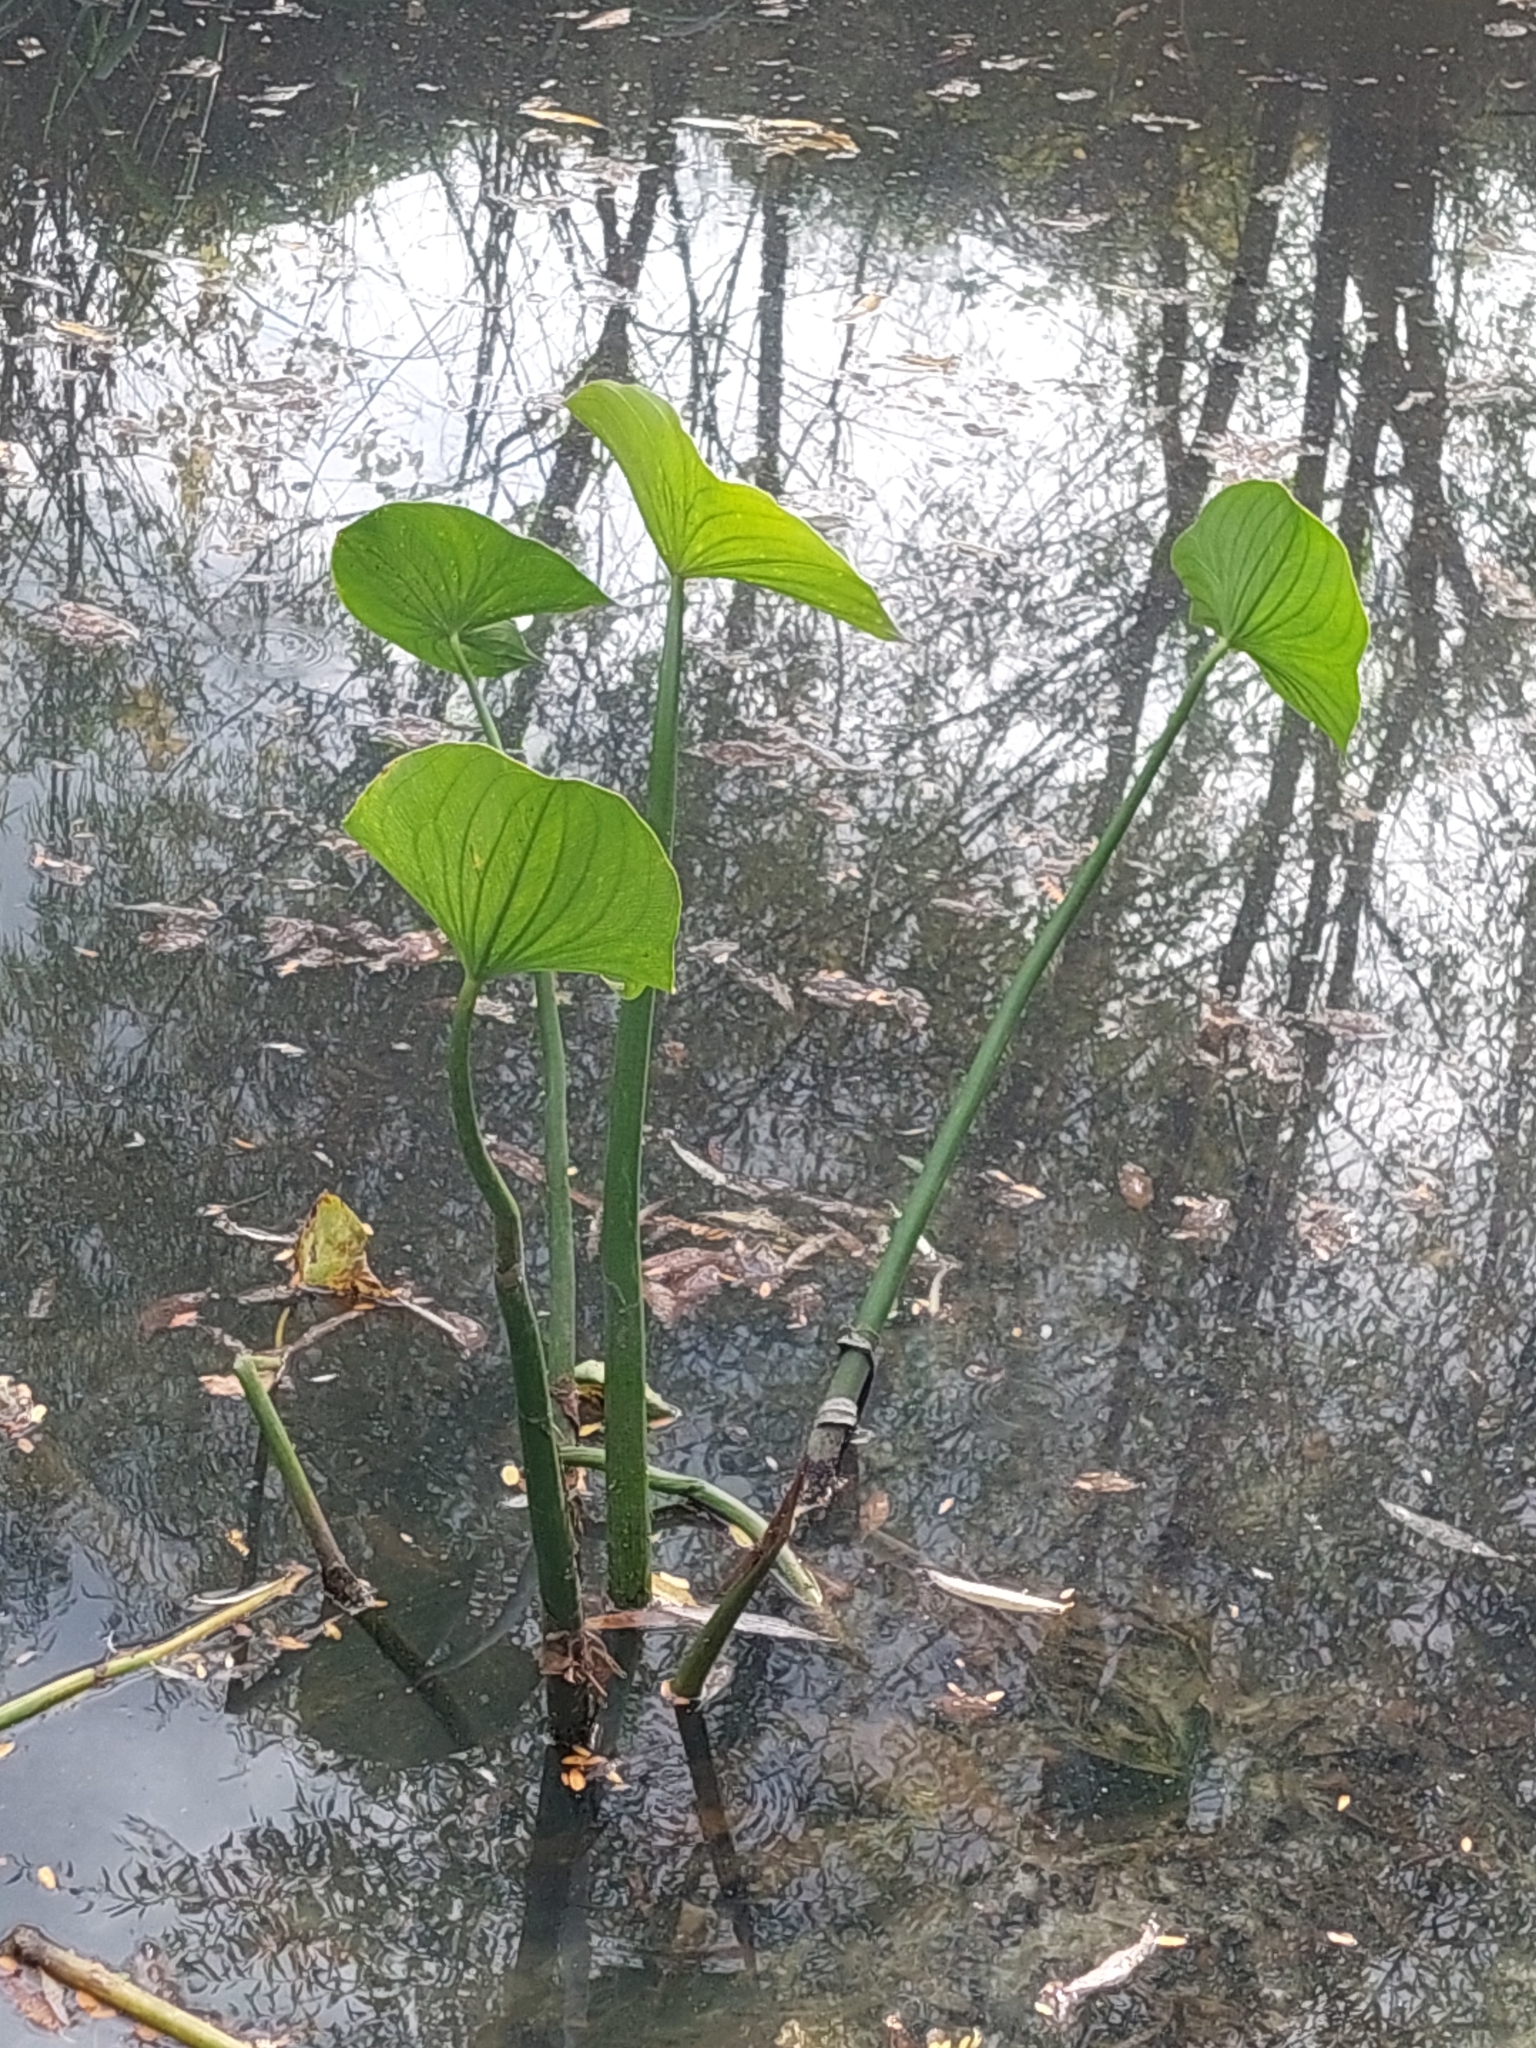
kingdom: Plantae
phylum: Tracheophyta
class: Liliopsida
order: Alismatales
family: Alismataceae
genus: Sagittaria
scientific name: Sagittaria montevidensis
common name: Giant arrowhead
